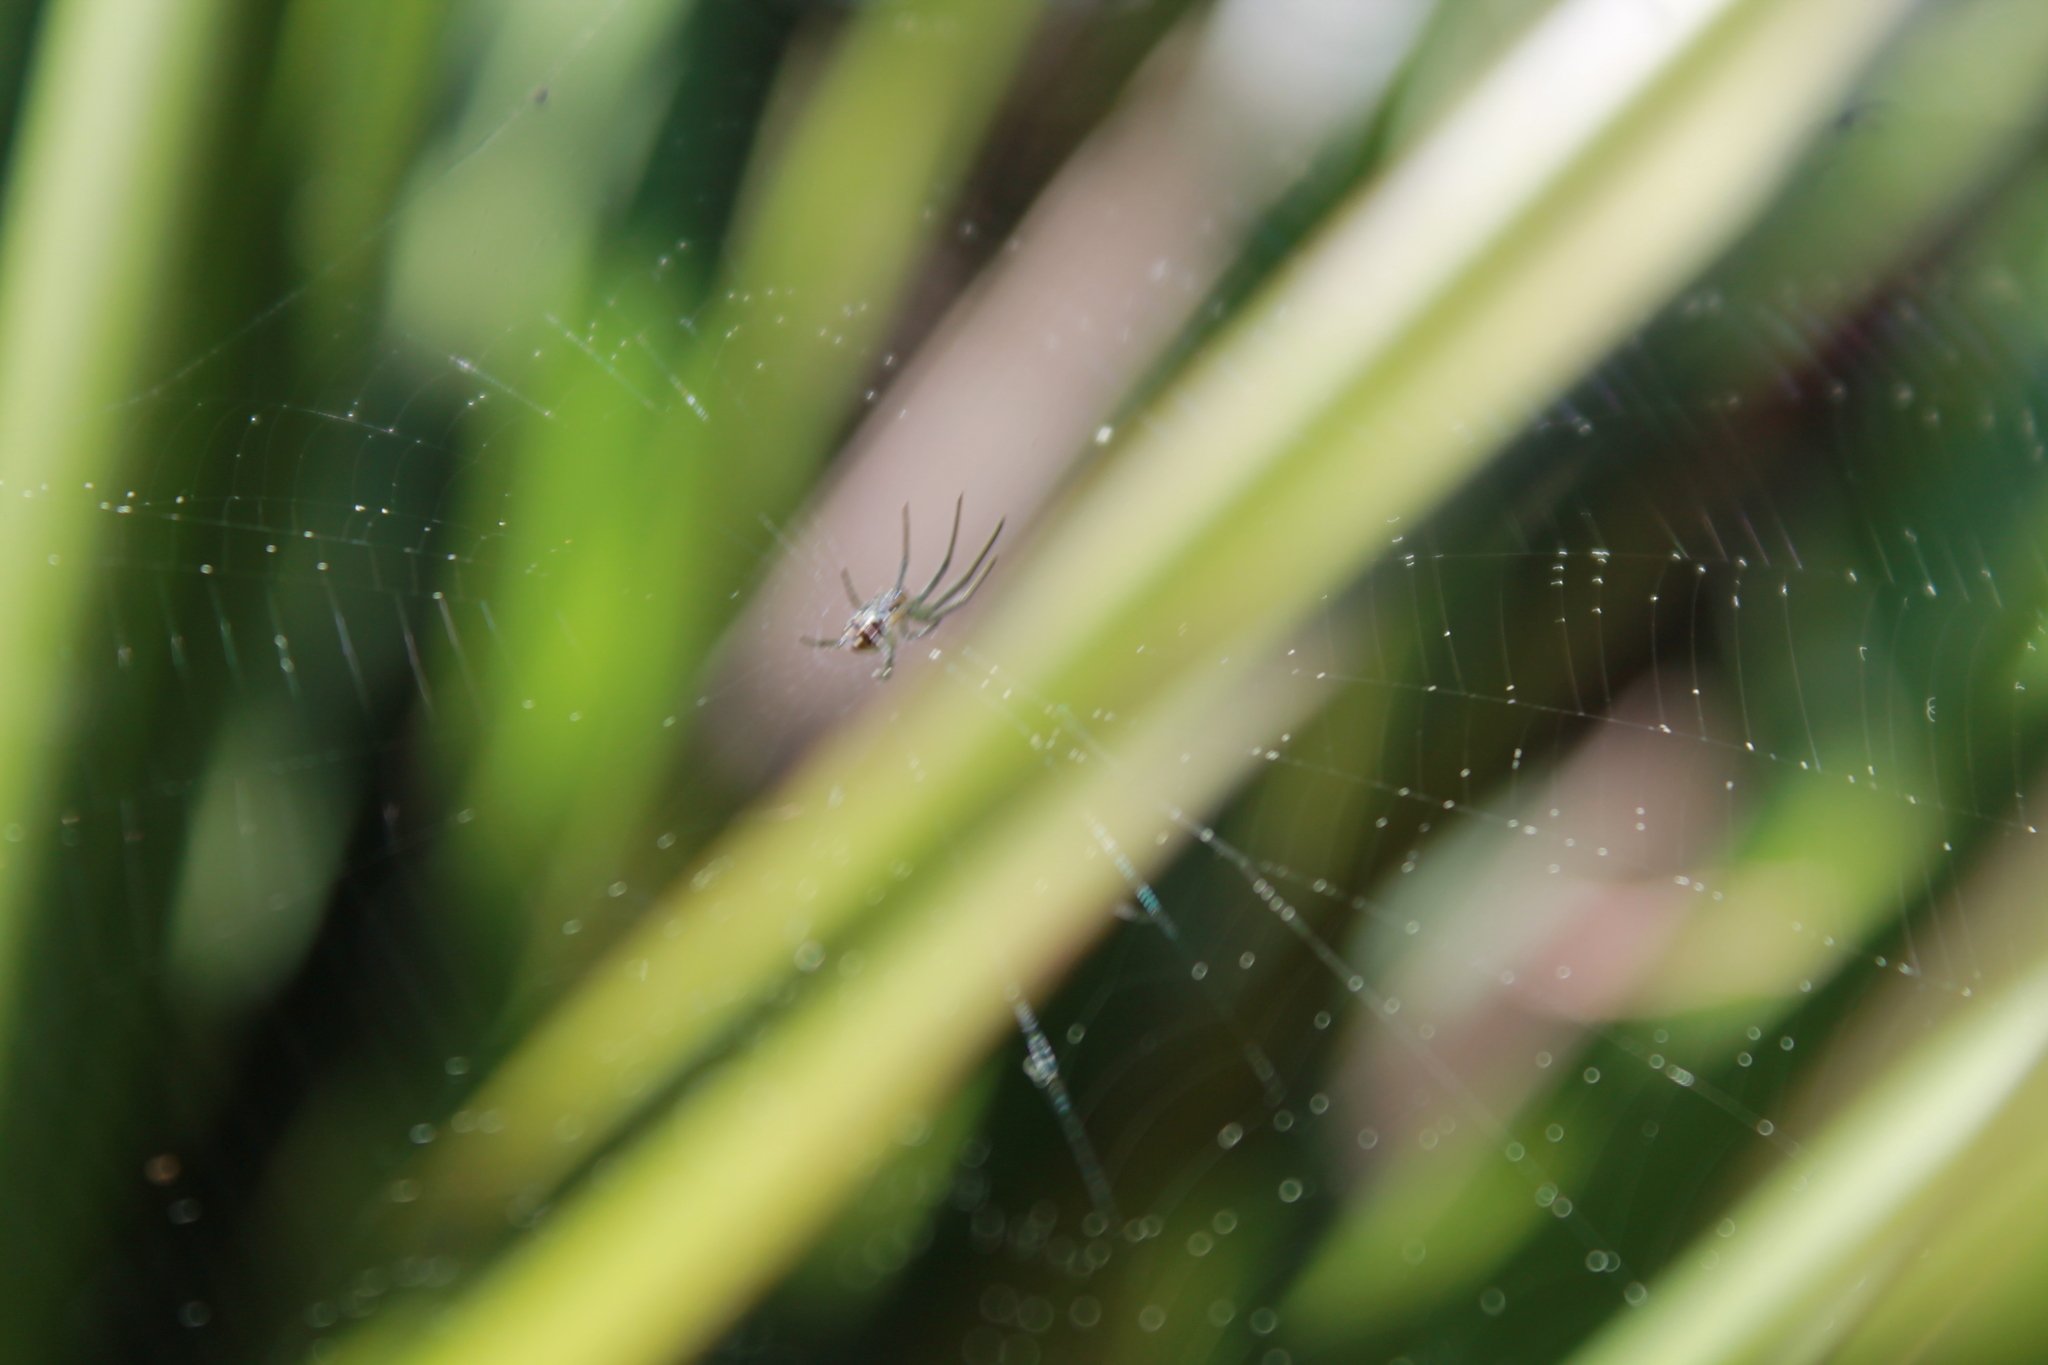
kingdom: Animalia
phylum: Arthropoda
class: Arachnida
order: Araneae
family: Tetragnathidae
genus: Leucauge
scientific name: Leucauge dromedaria
